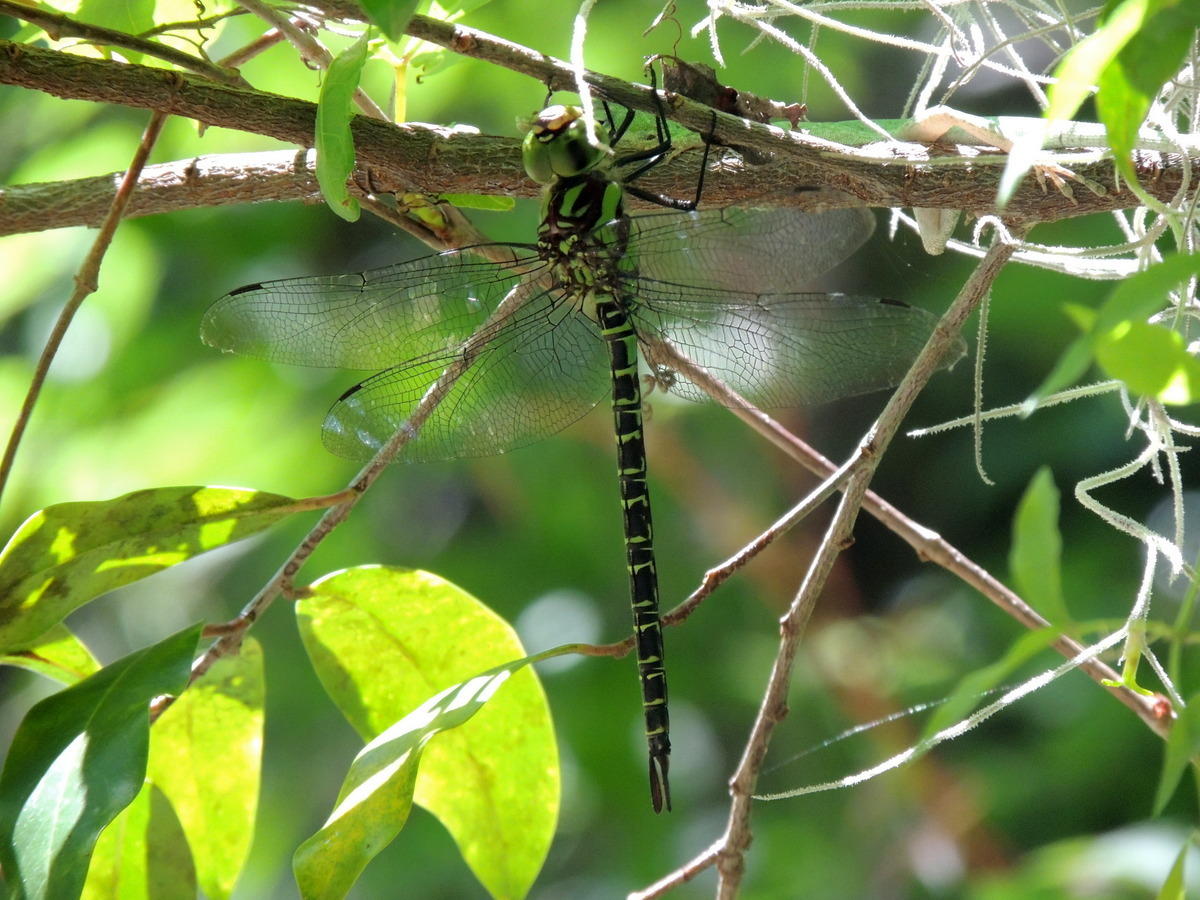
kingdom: Animalia
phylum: Arthropoda
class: Insecta
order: Odonata
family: Aeshnidae
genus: Coryphaeschna
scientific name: Coryphaeschna ingens
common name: Regal darner
